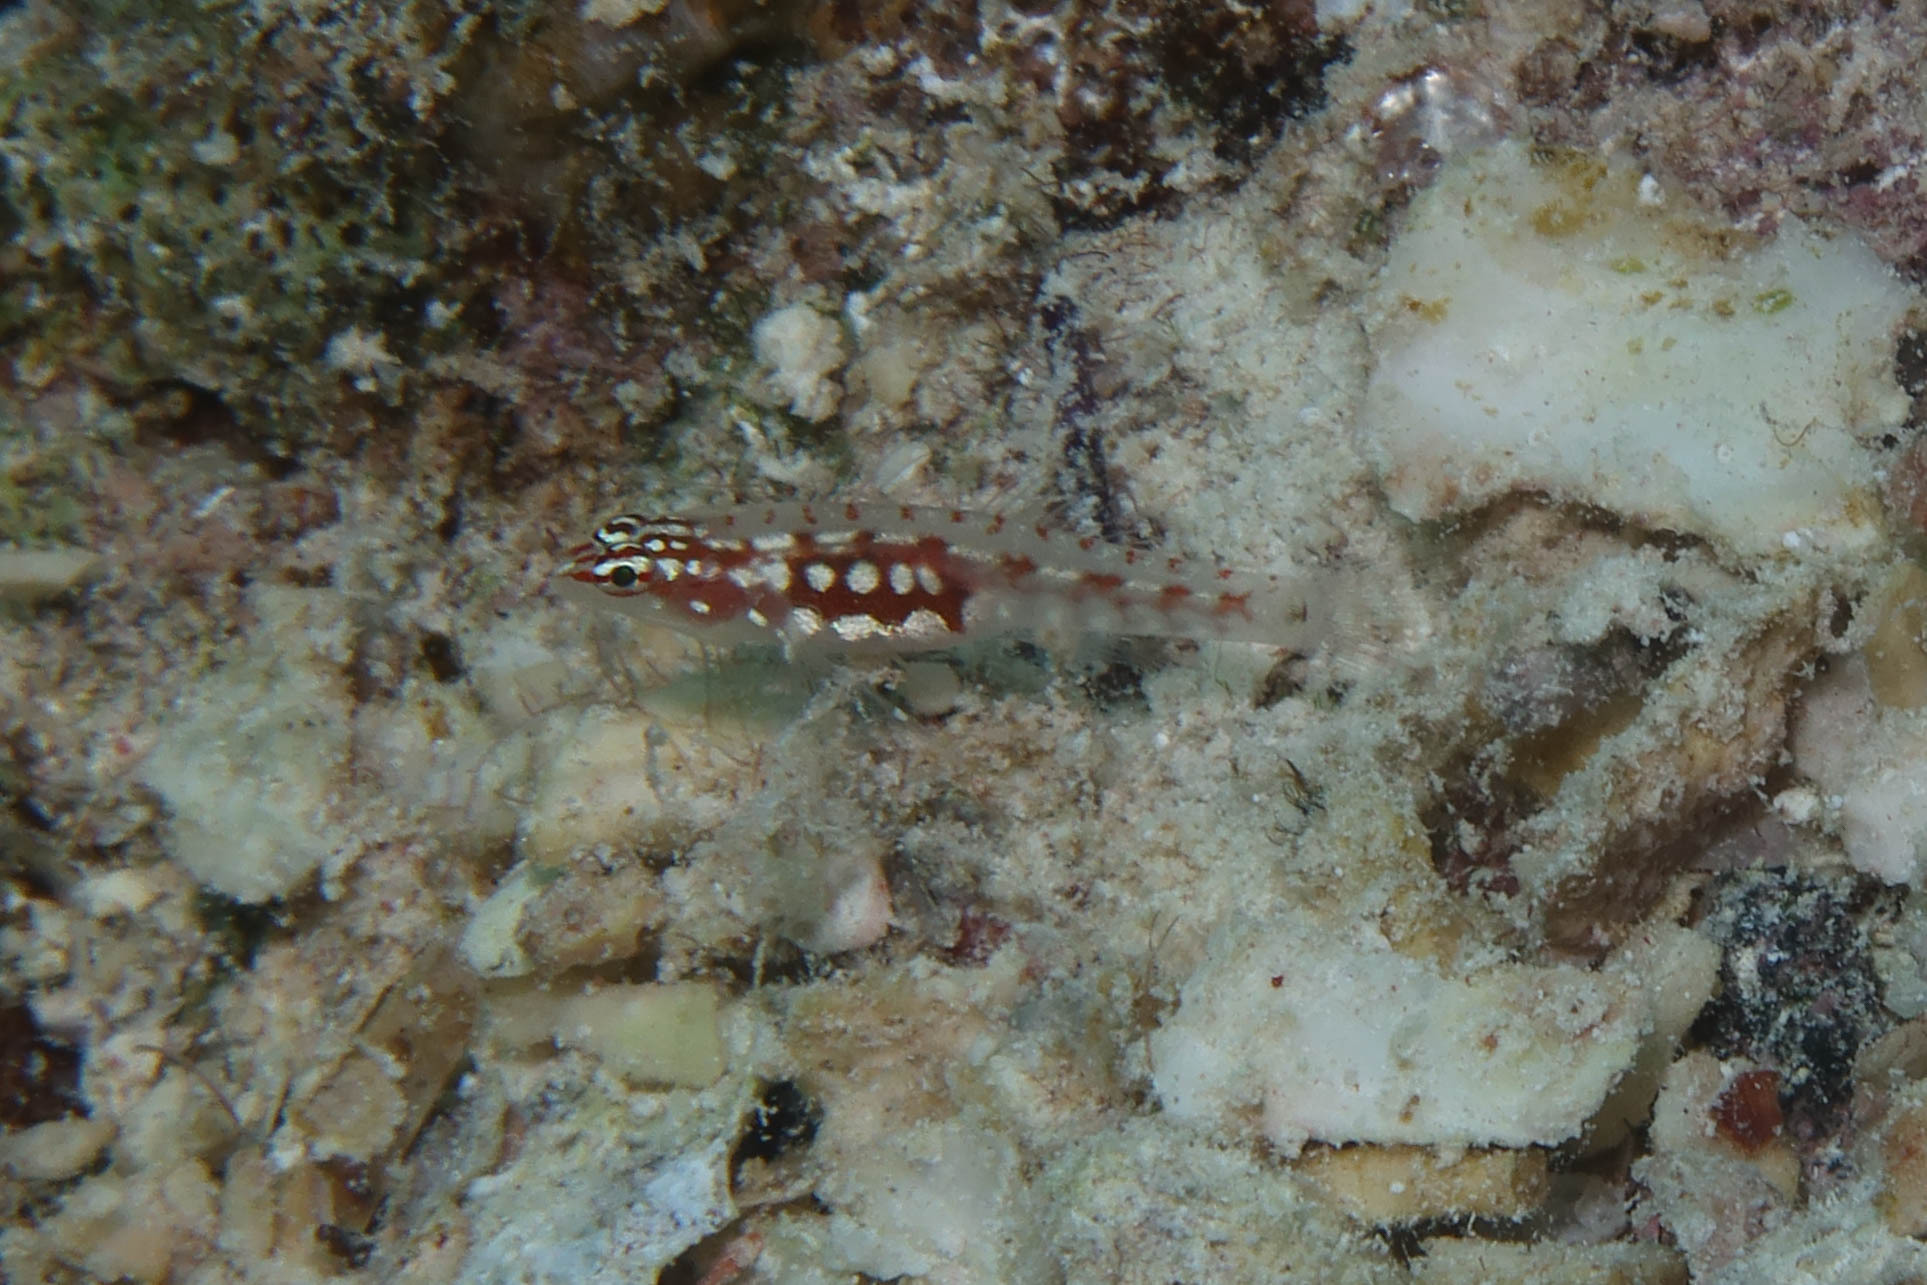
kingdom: Animalia
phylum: Chordata
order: Perciformes
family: Gobiidae
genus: Eviota
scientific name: Eviota marerubrum
